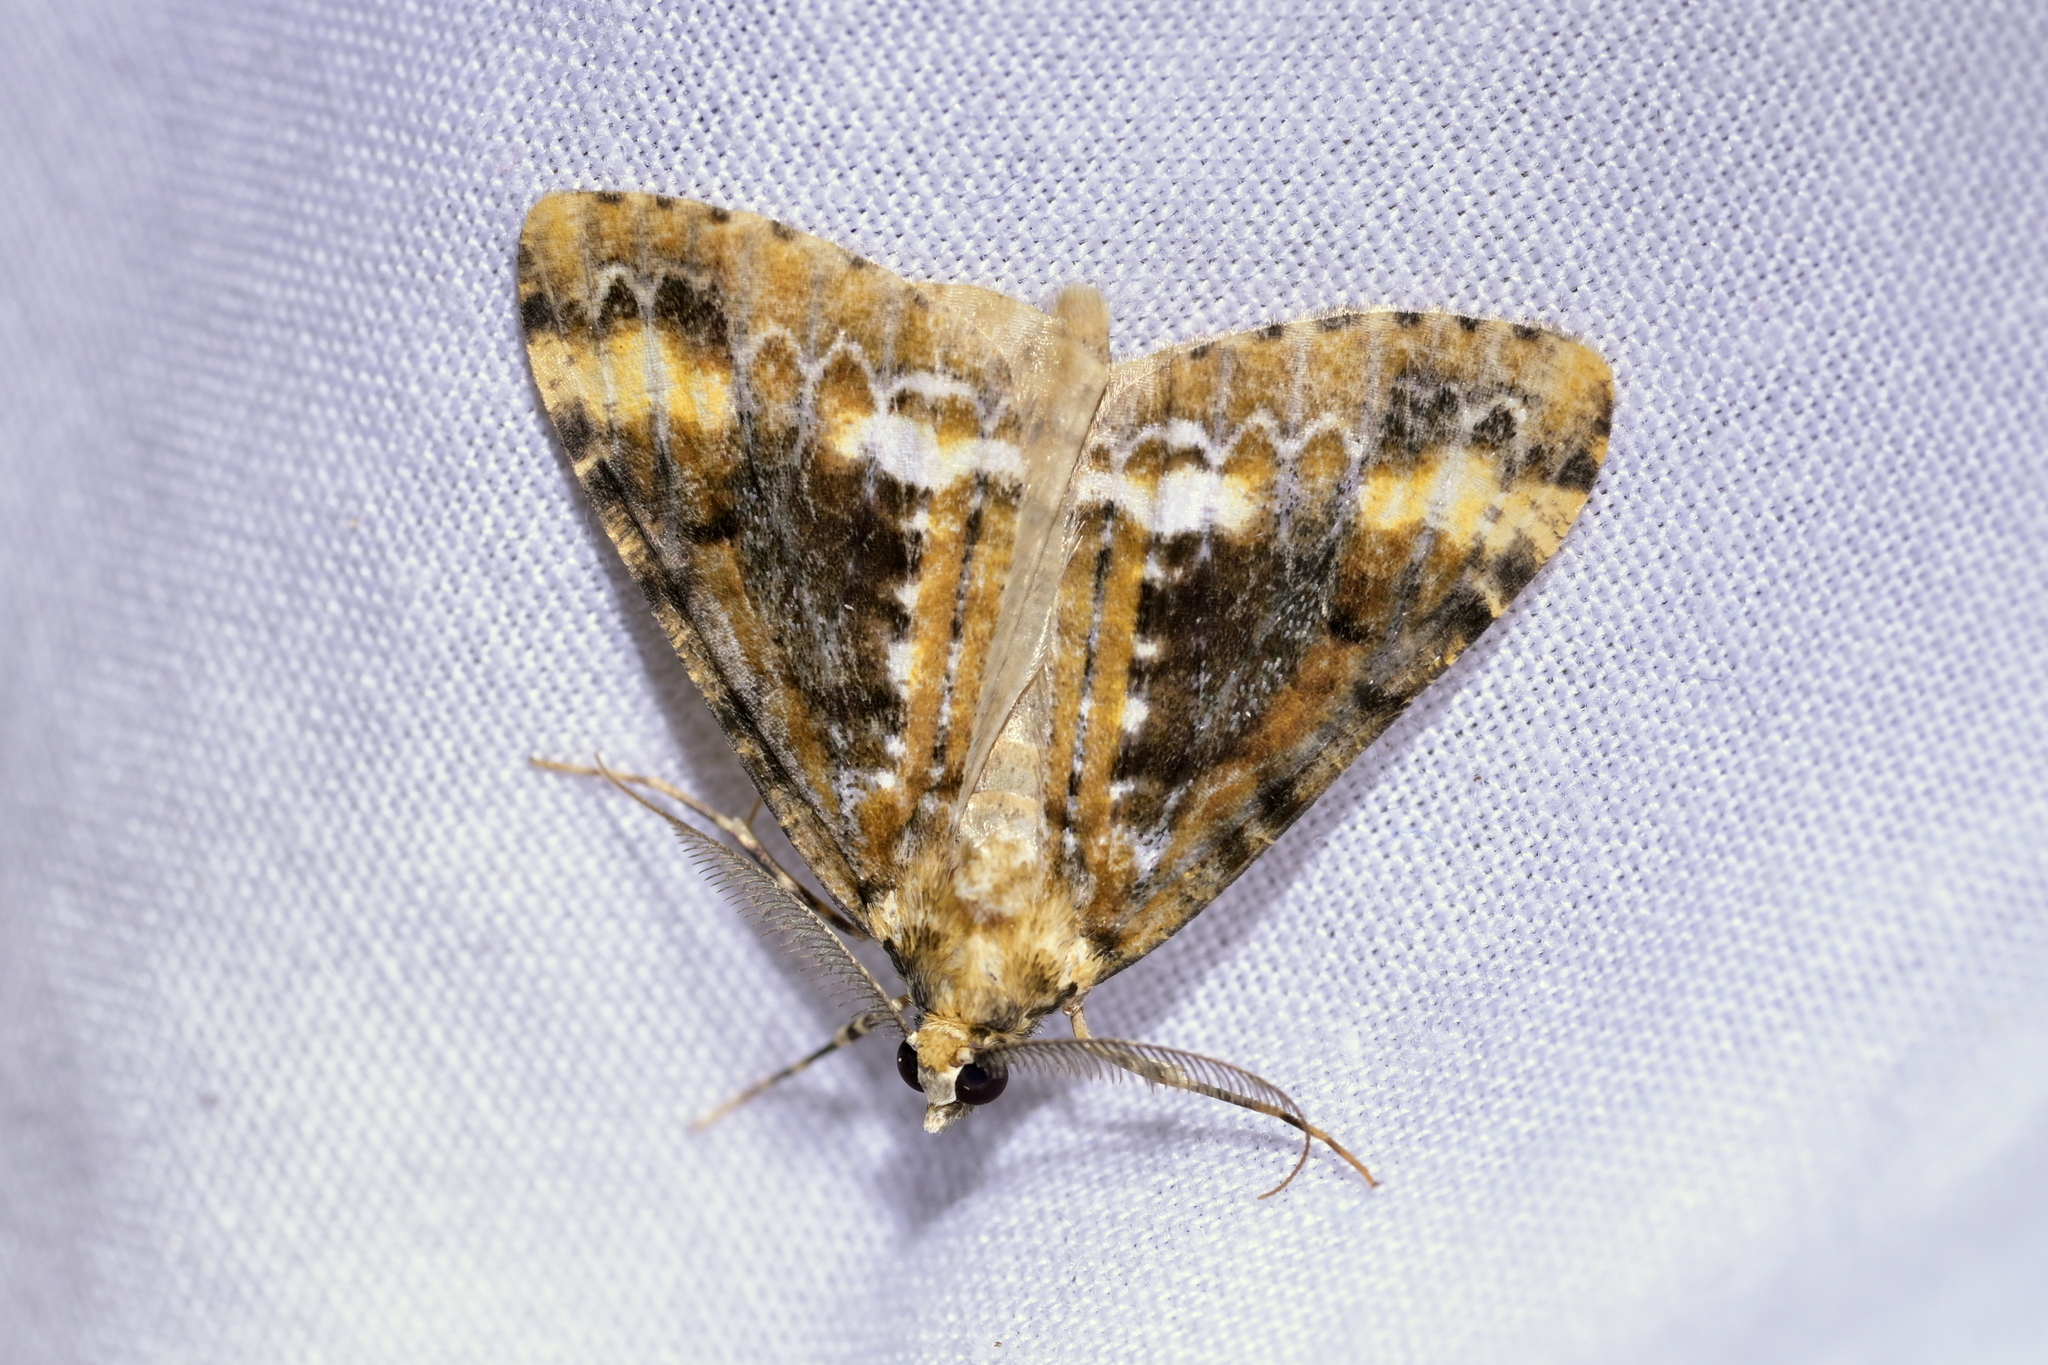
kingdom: Animalia
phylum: Arthropoda
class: Insecta
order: Lepidoptera
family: Geometridae
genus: Pseudocoremia
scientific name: Pseudocoremia leucelaea
